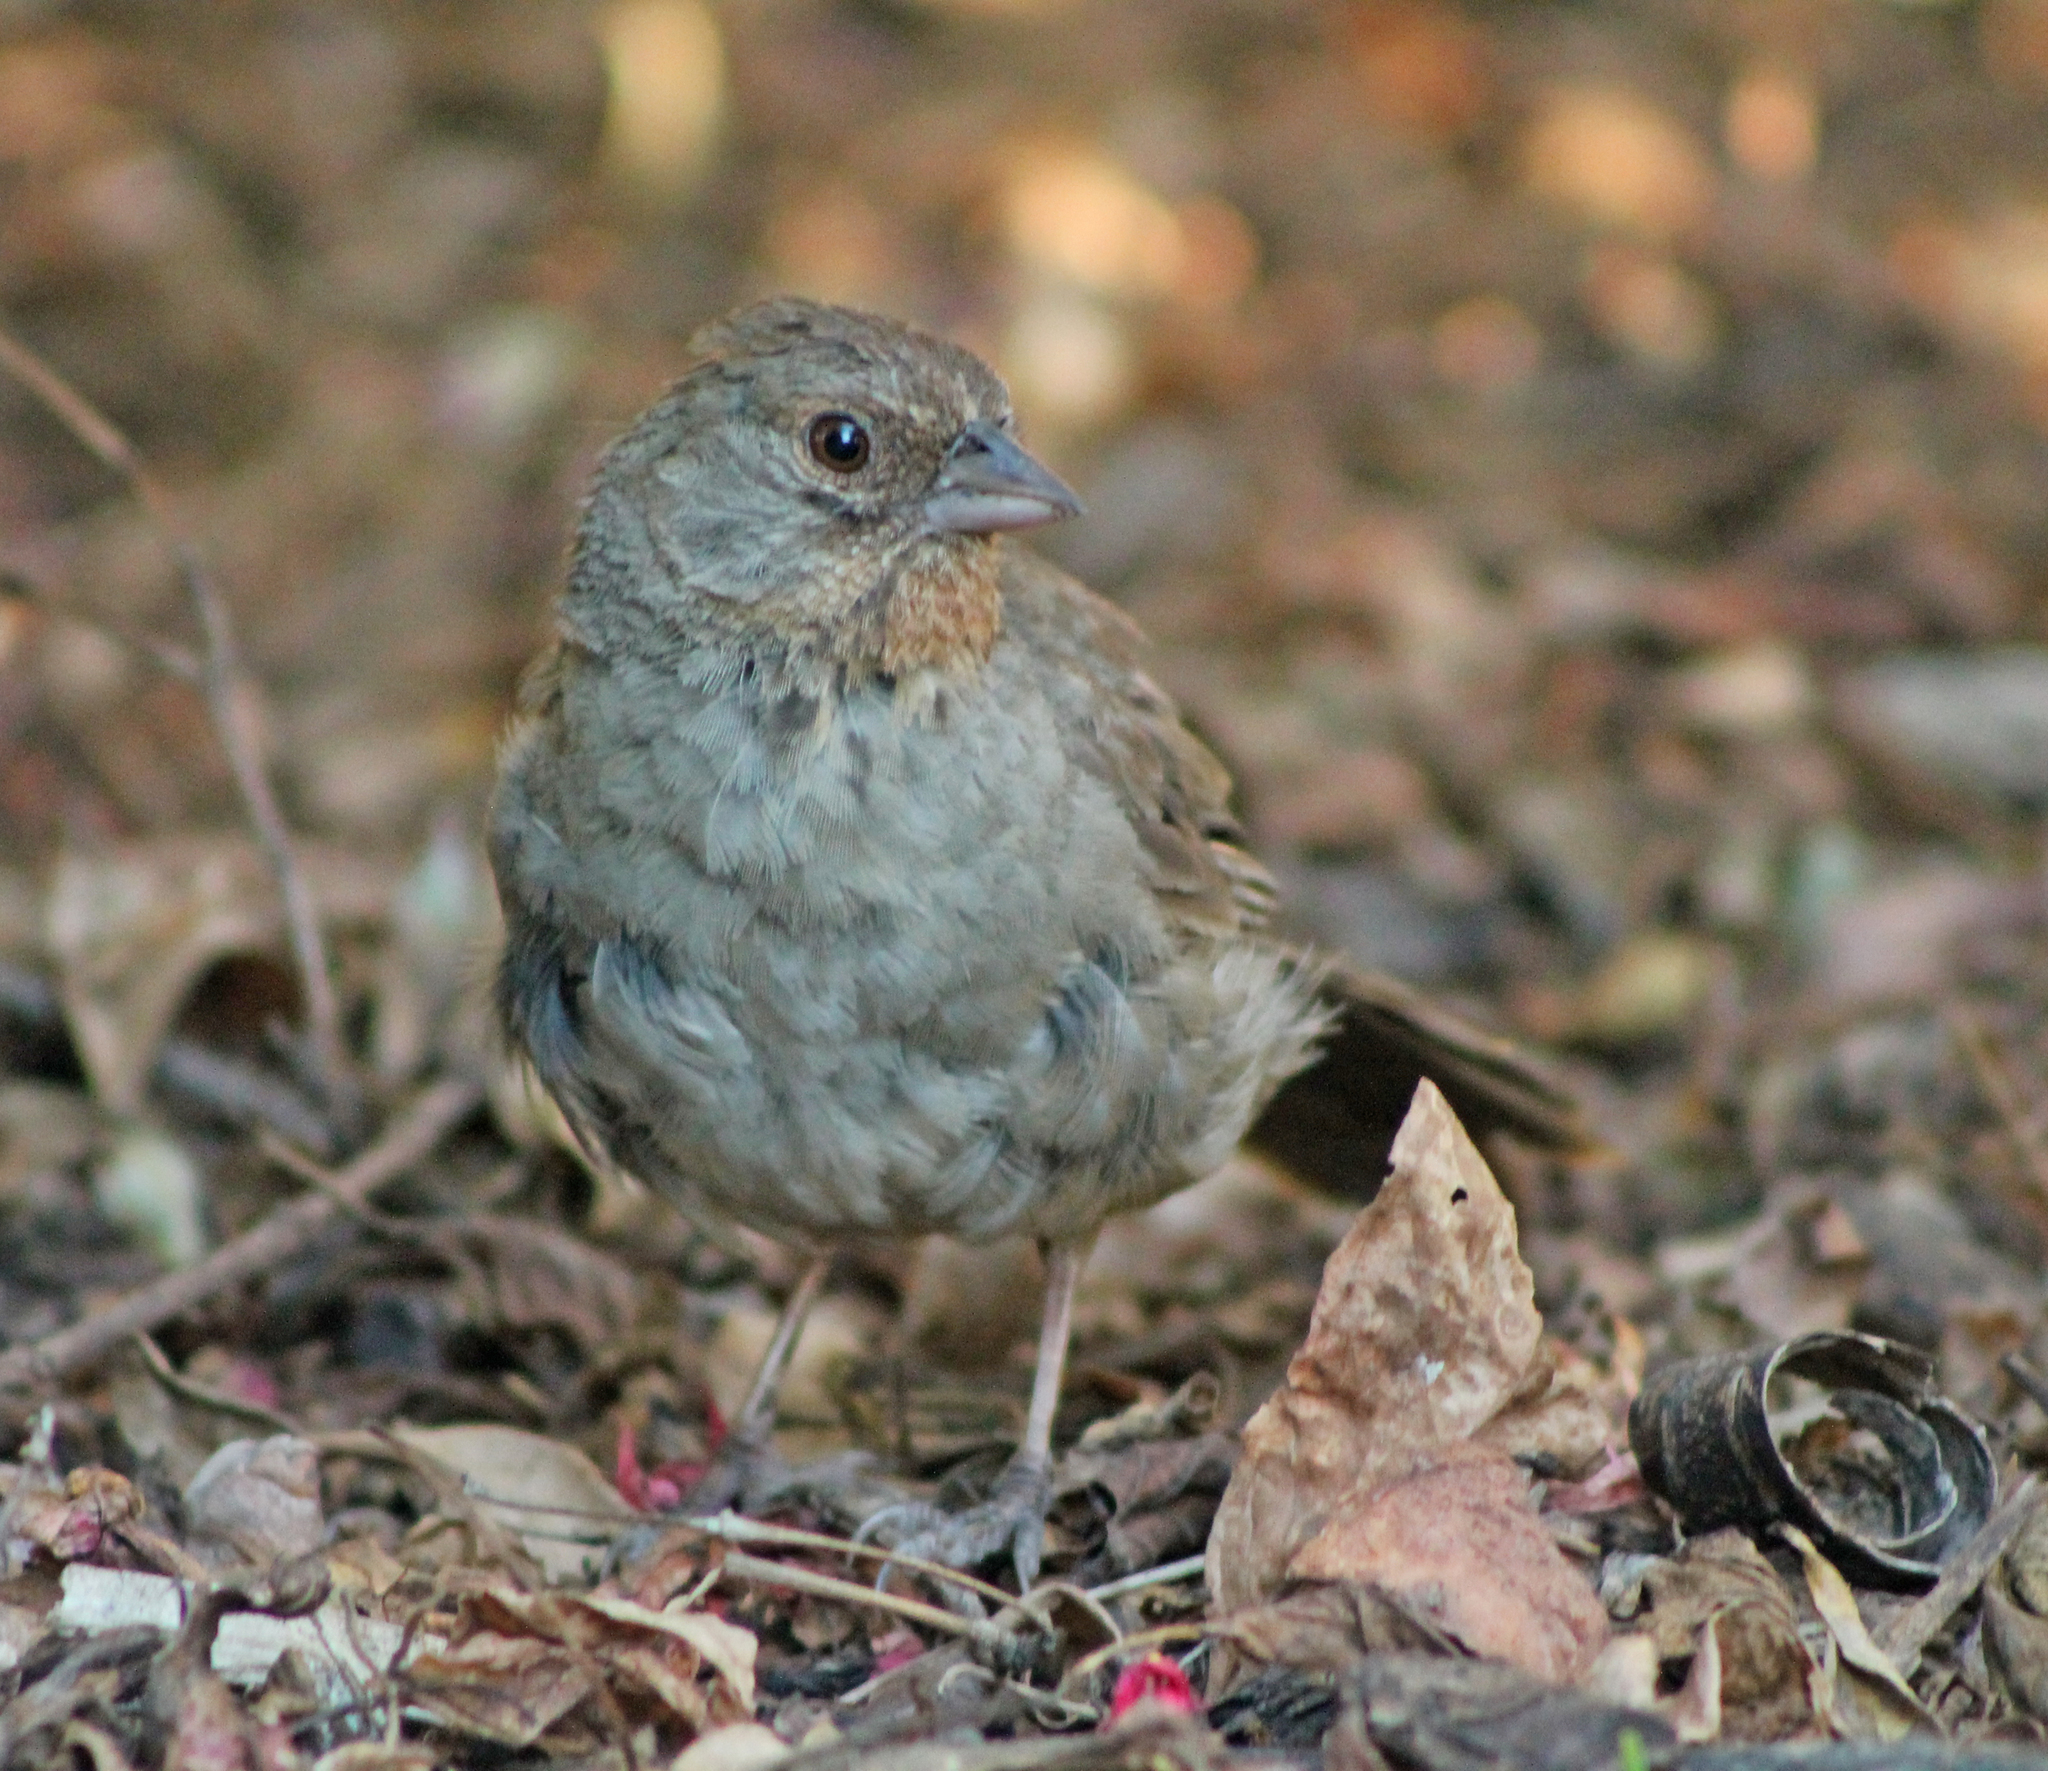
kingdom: Animalia
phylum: Chordata
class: Aves
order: Passeriformes
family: Passerellidae
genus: Melozone
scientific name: Melozone crissalis
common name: California towhee
